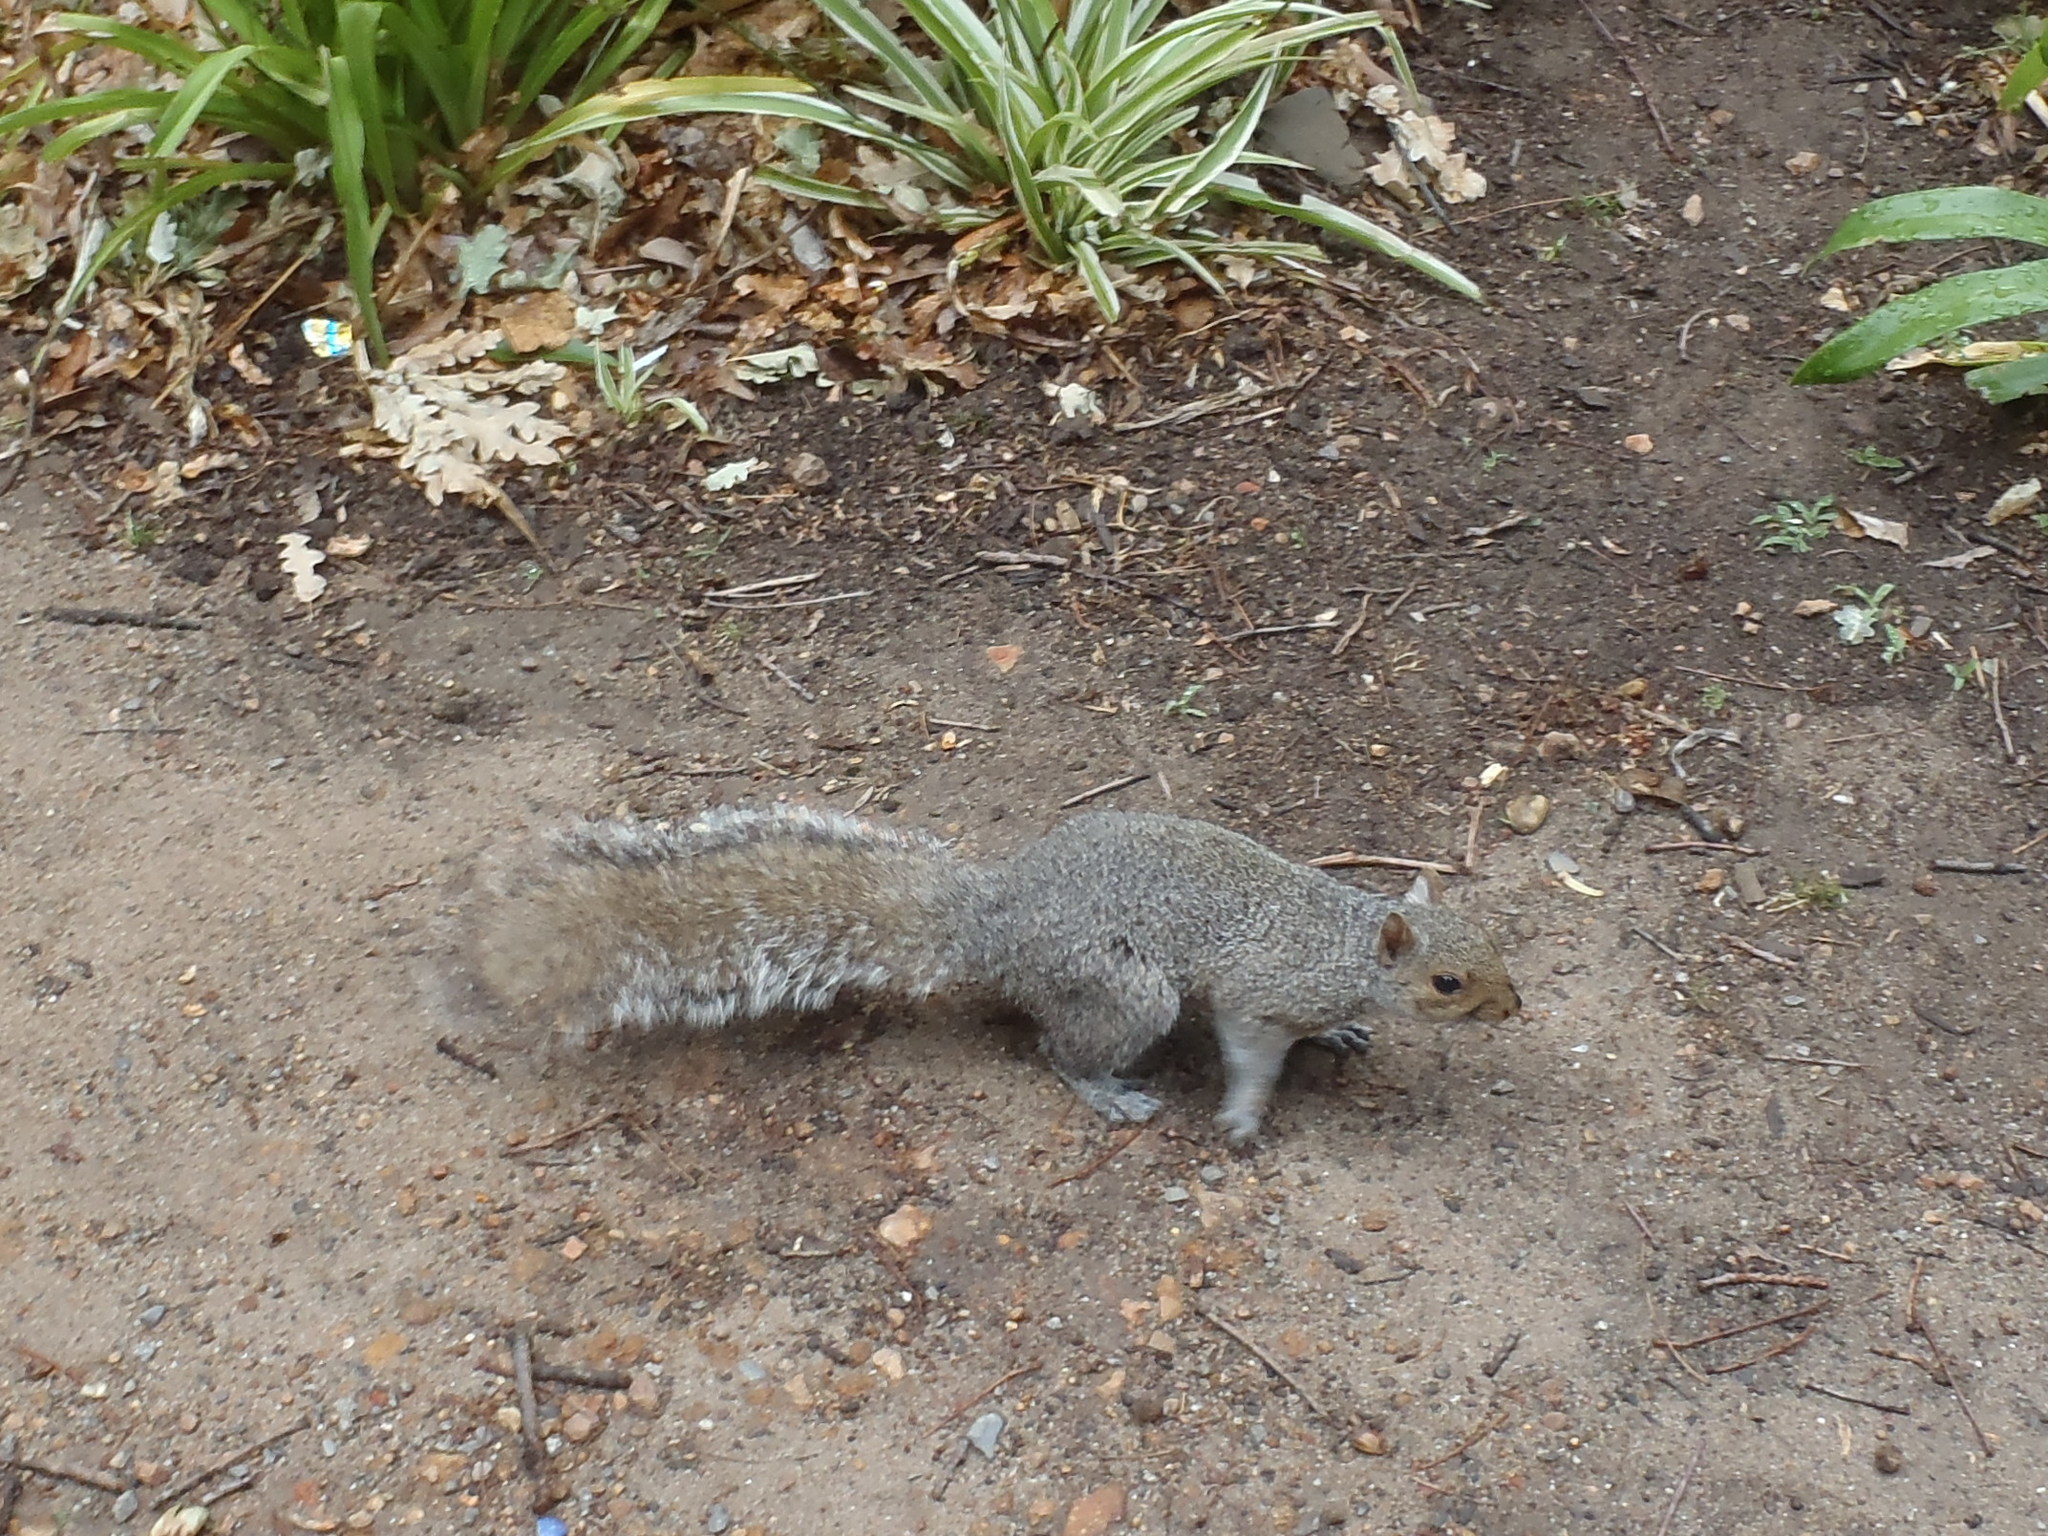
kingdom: Animalia
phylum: Chordata
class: Mammalia
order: Rodentia
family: Sciuridae
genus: Sciurus
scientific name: Sciurus carolinensis
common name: Eastern gray squirrel
